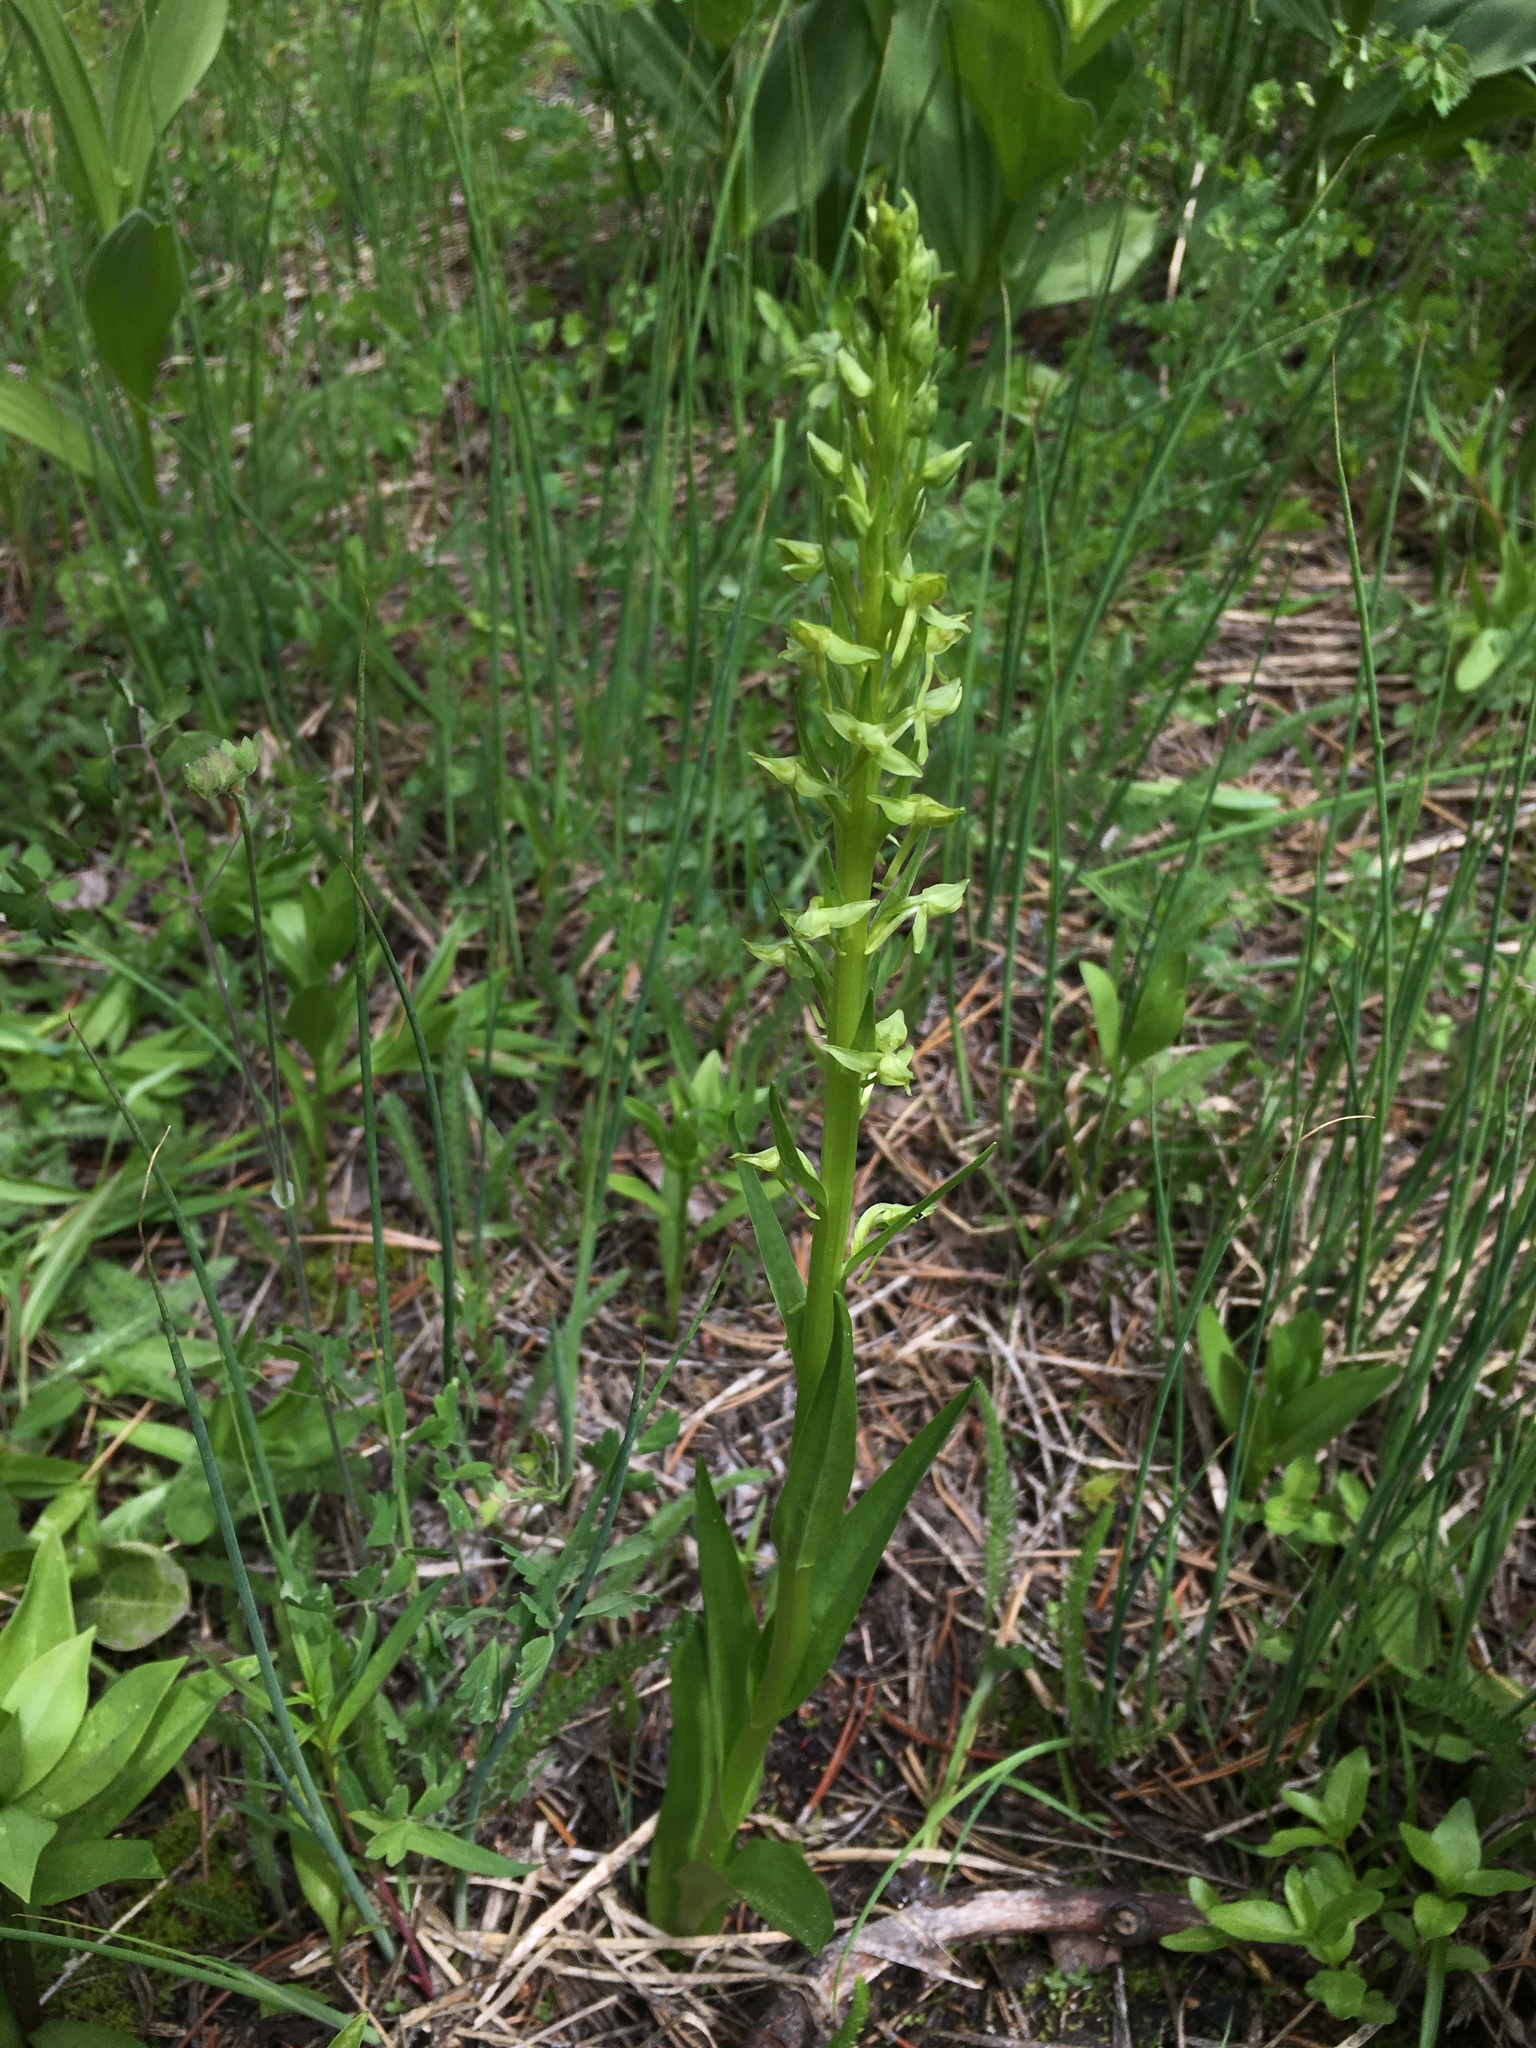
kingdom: Plantae
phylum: Tracheophyta
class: Liliopsida
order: Asparagales
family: Orchidaceae
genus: Platanthera
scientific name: Platanthera sparsiflora
